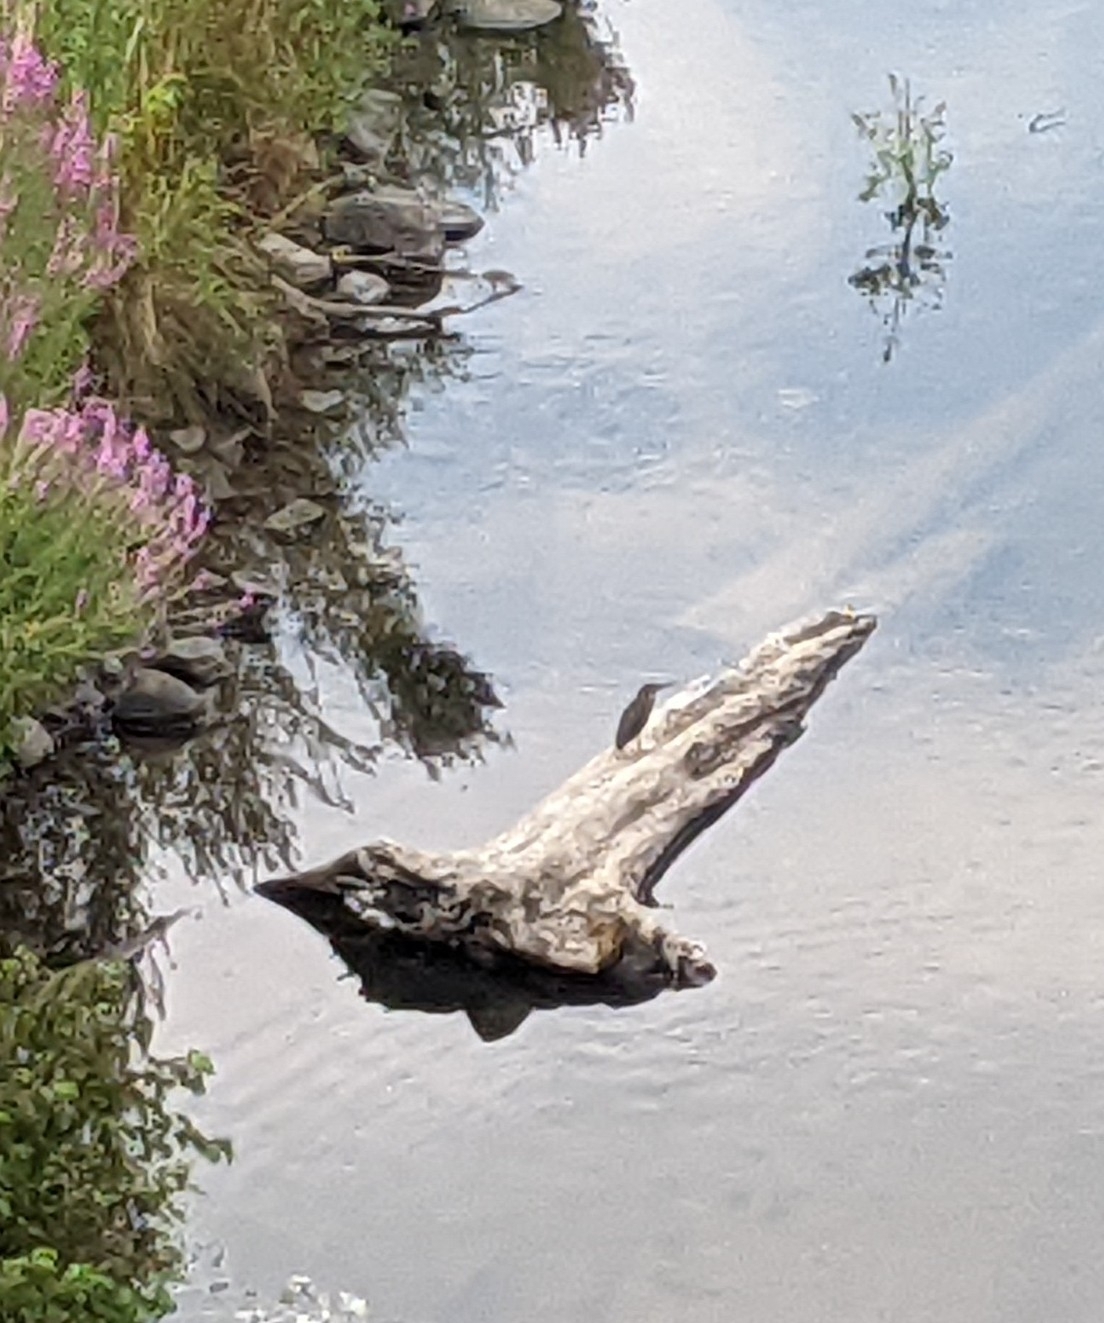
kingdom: Animalia
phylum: Chordata
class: Aves
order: Pelecaniformes
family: Ardeidae
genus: Butorides
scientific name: Butorides virescens
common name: Green heron
